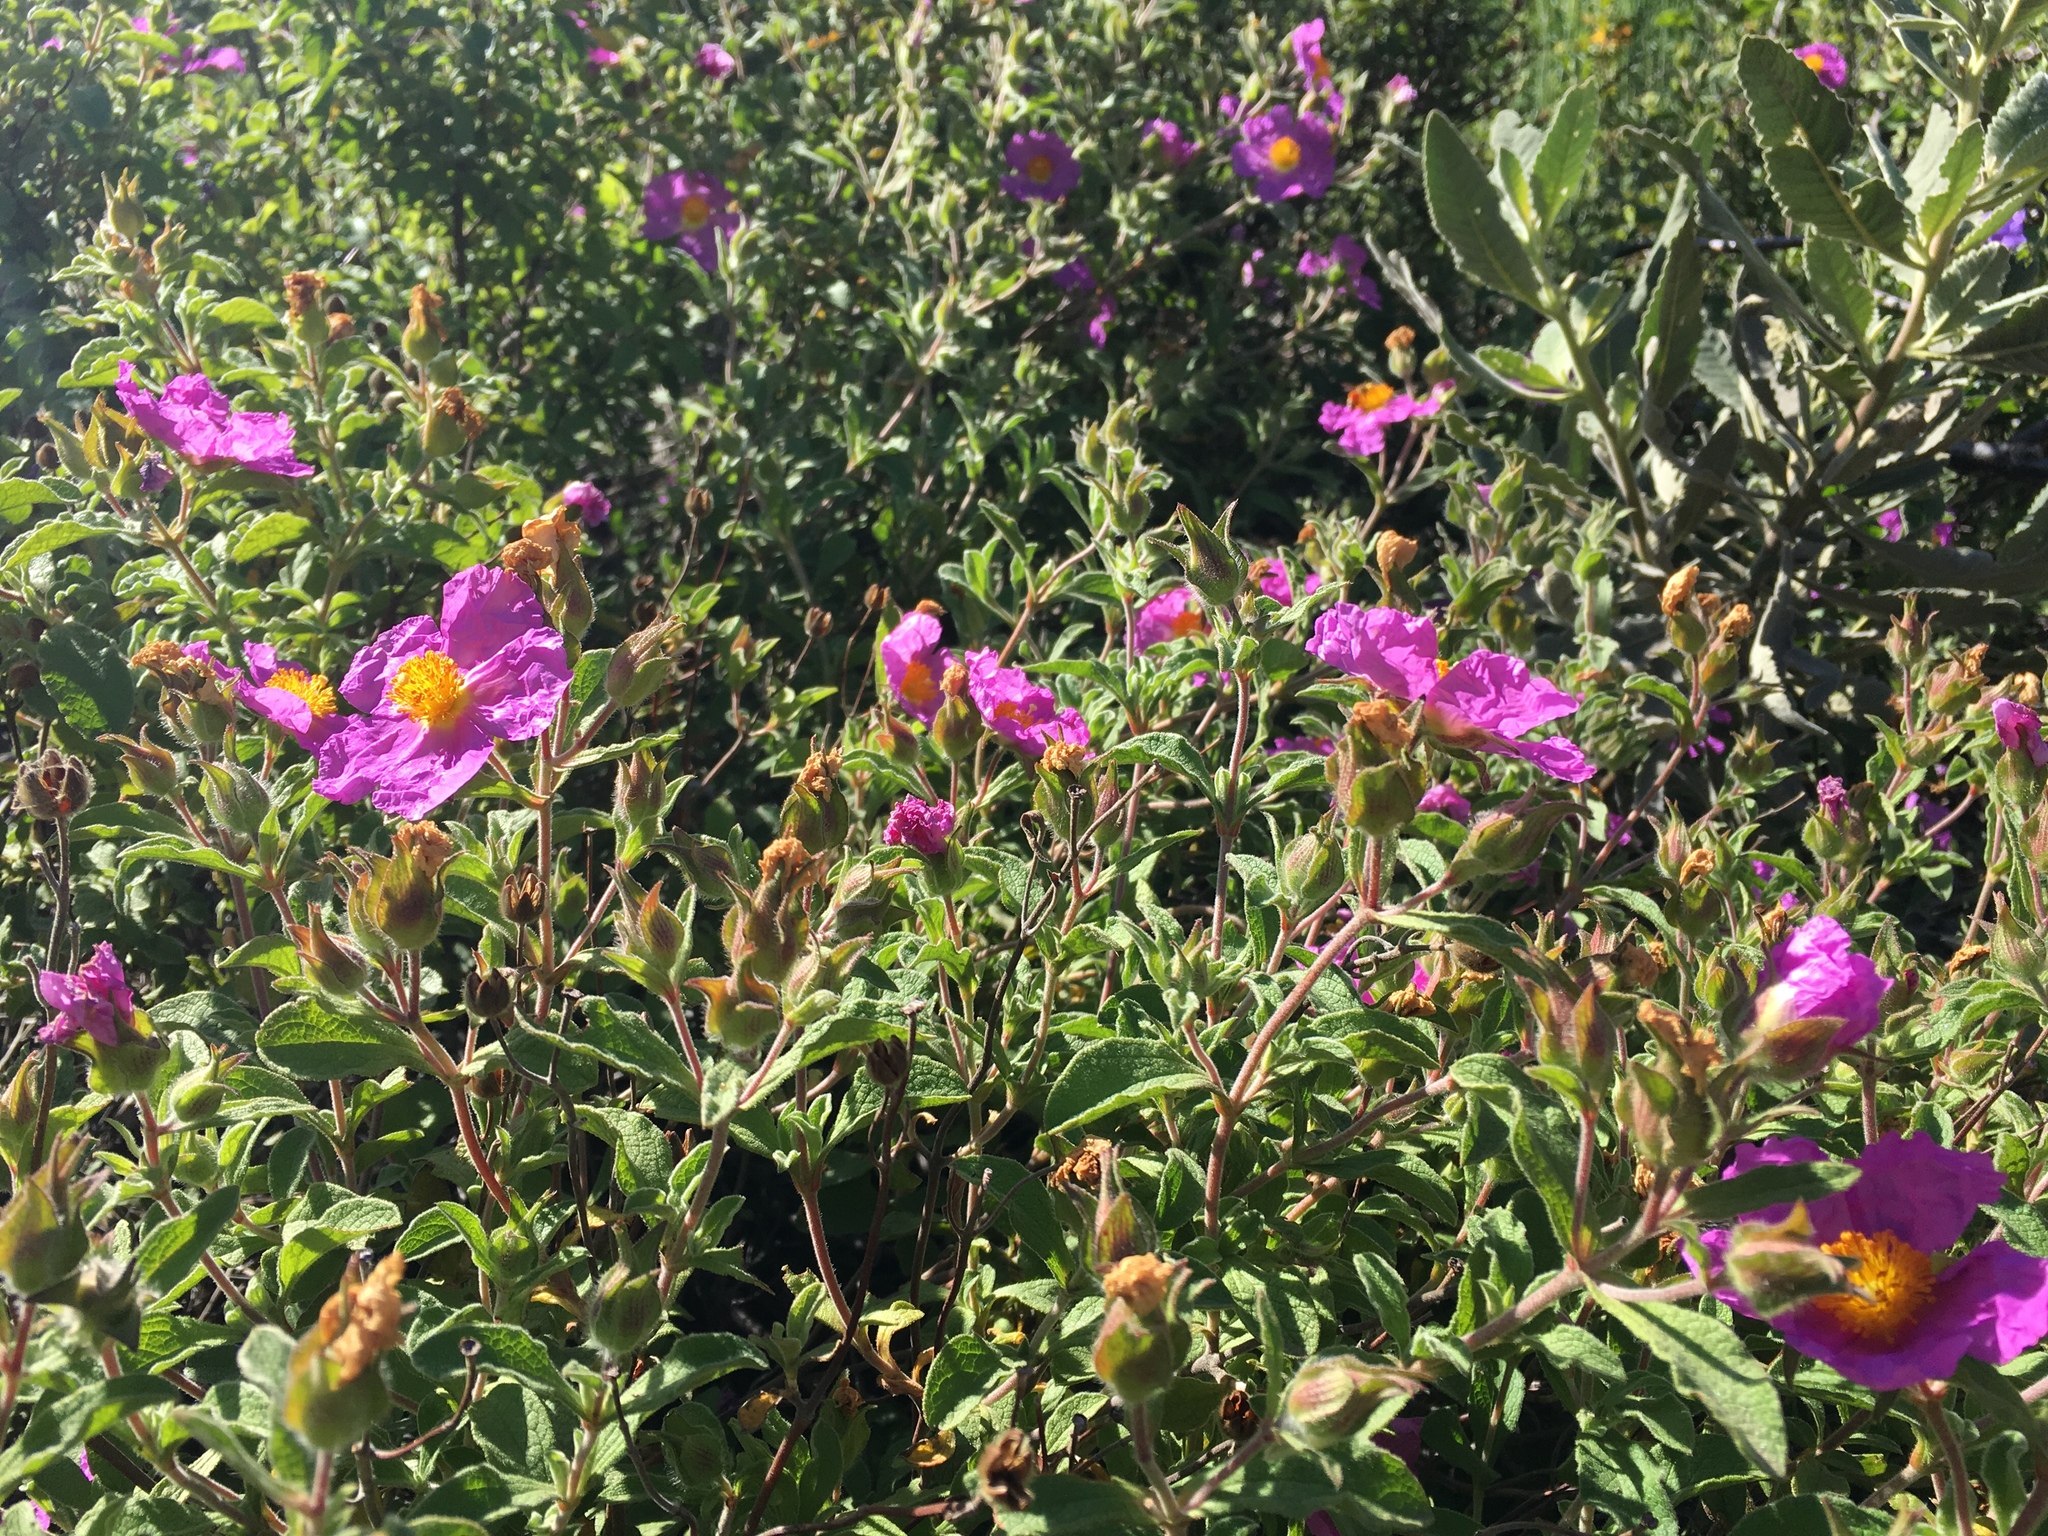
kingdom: Plantae
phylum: Tracheophyta
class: Magnoliopsida
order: Malvales
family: Cistaceae
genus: Cistus
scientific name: Cistus creticus
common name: Cretan rockrose
